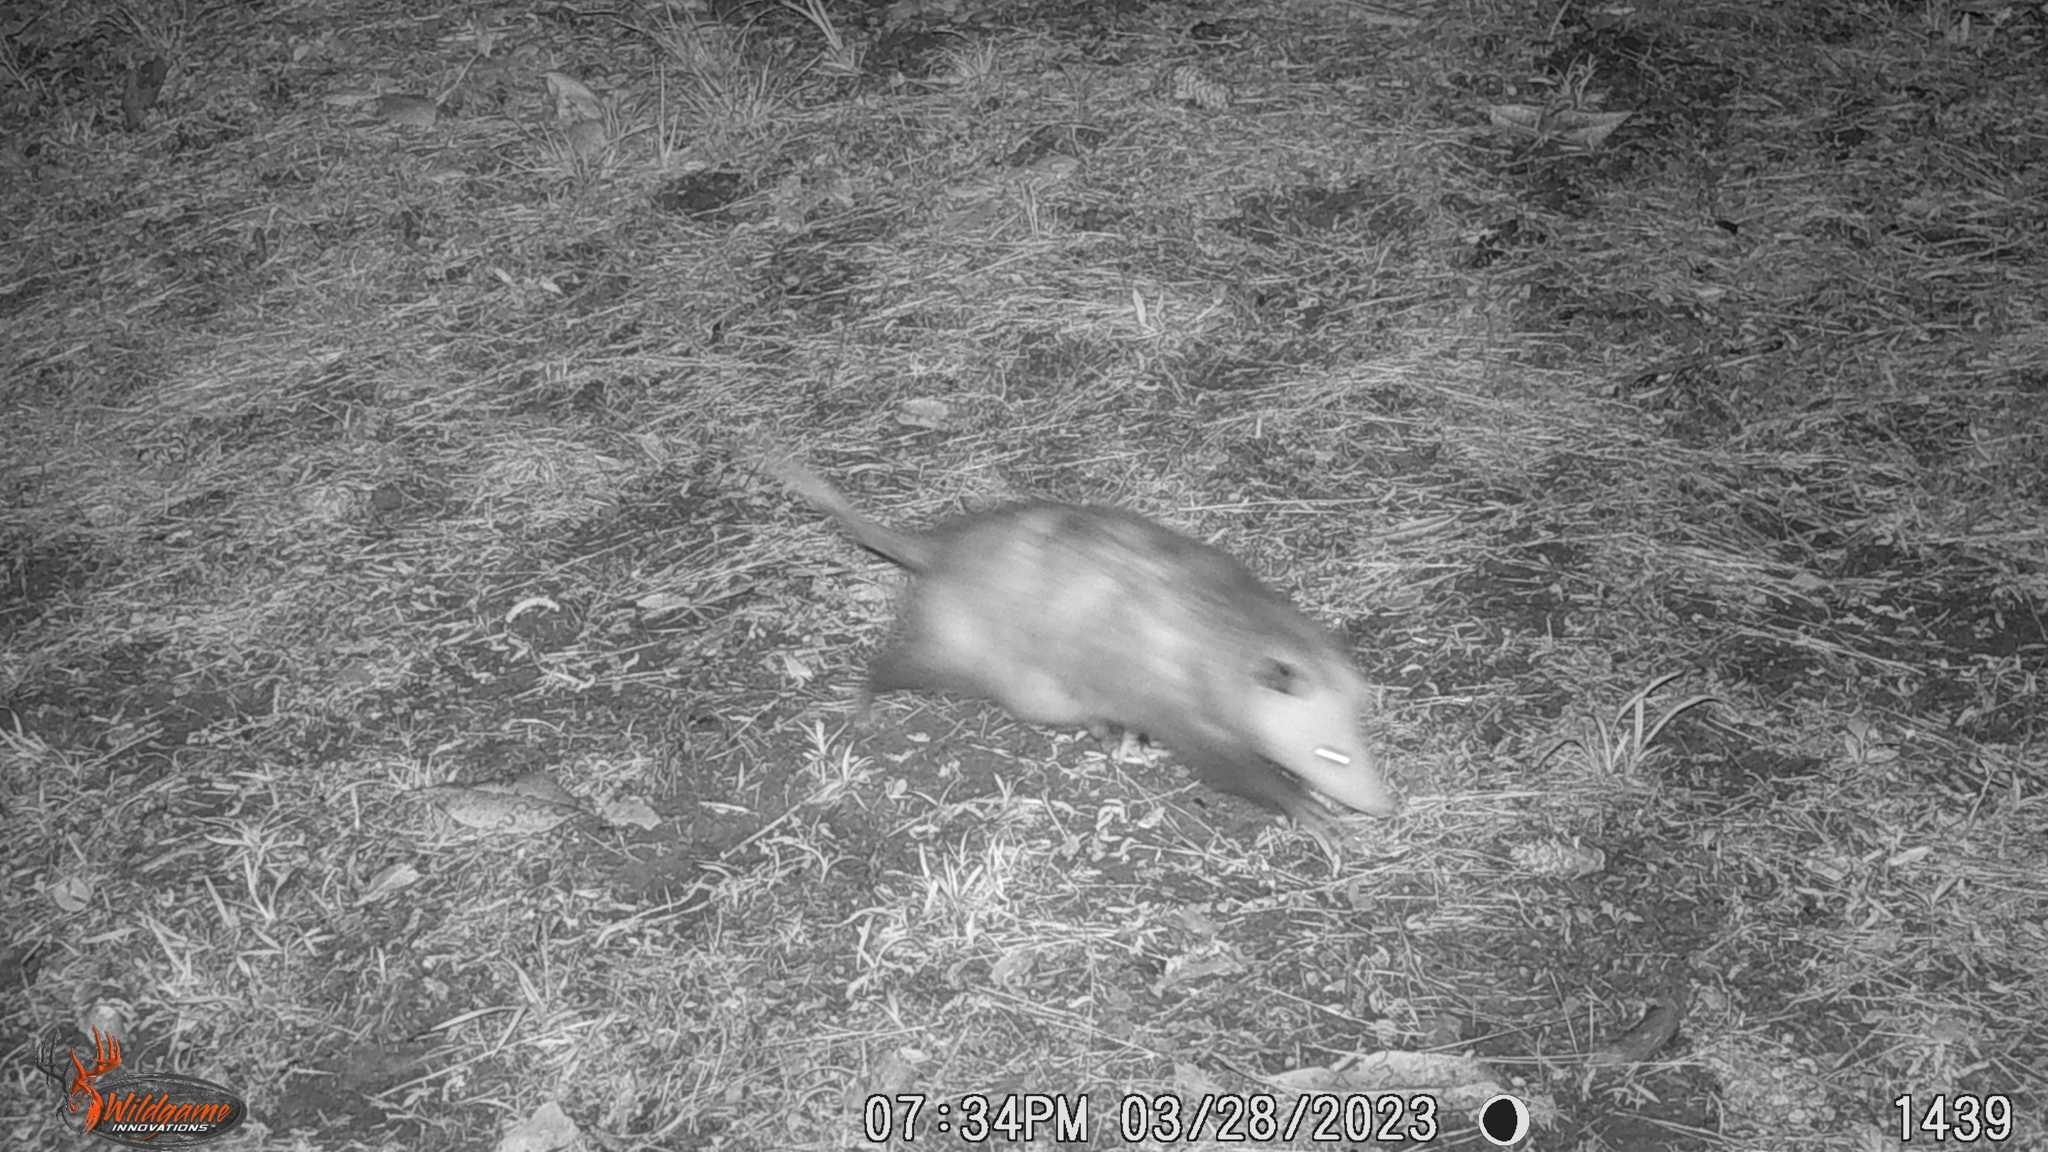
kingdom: Animalia
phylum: Chordata
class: Mammalia
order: Didelphimorphia
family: Didelphidae
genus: Didelphis
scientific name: Didelphis virginiana
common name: Virginia opossum
